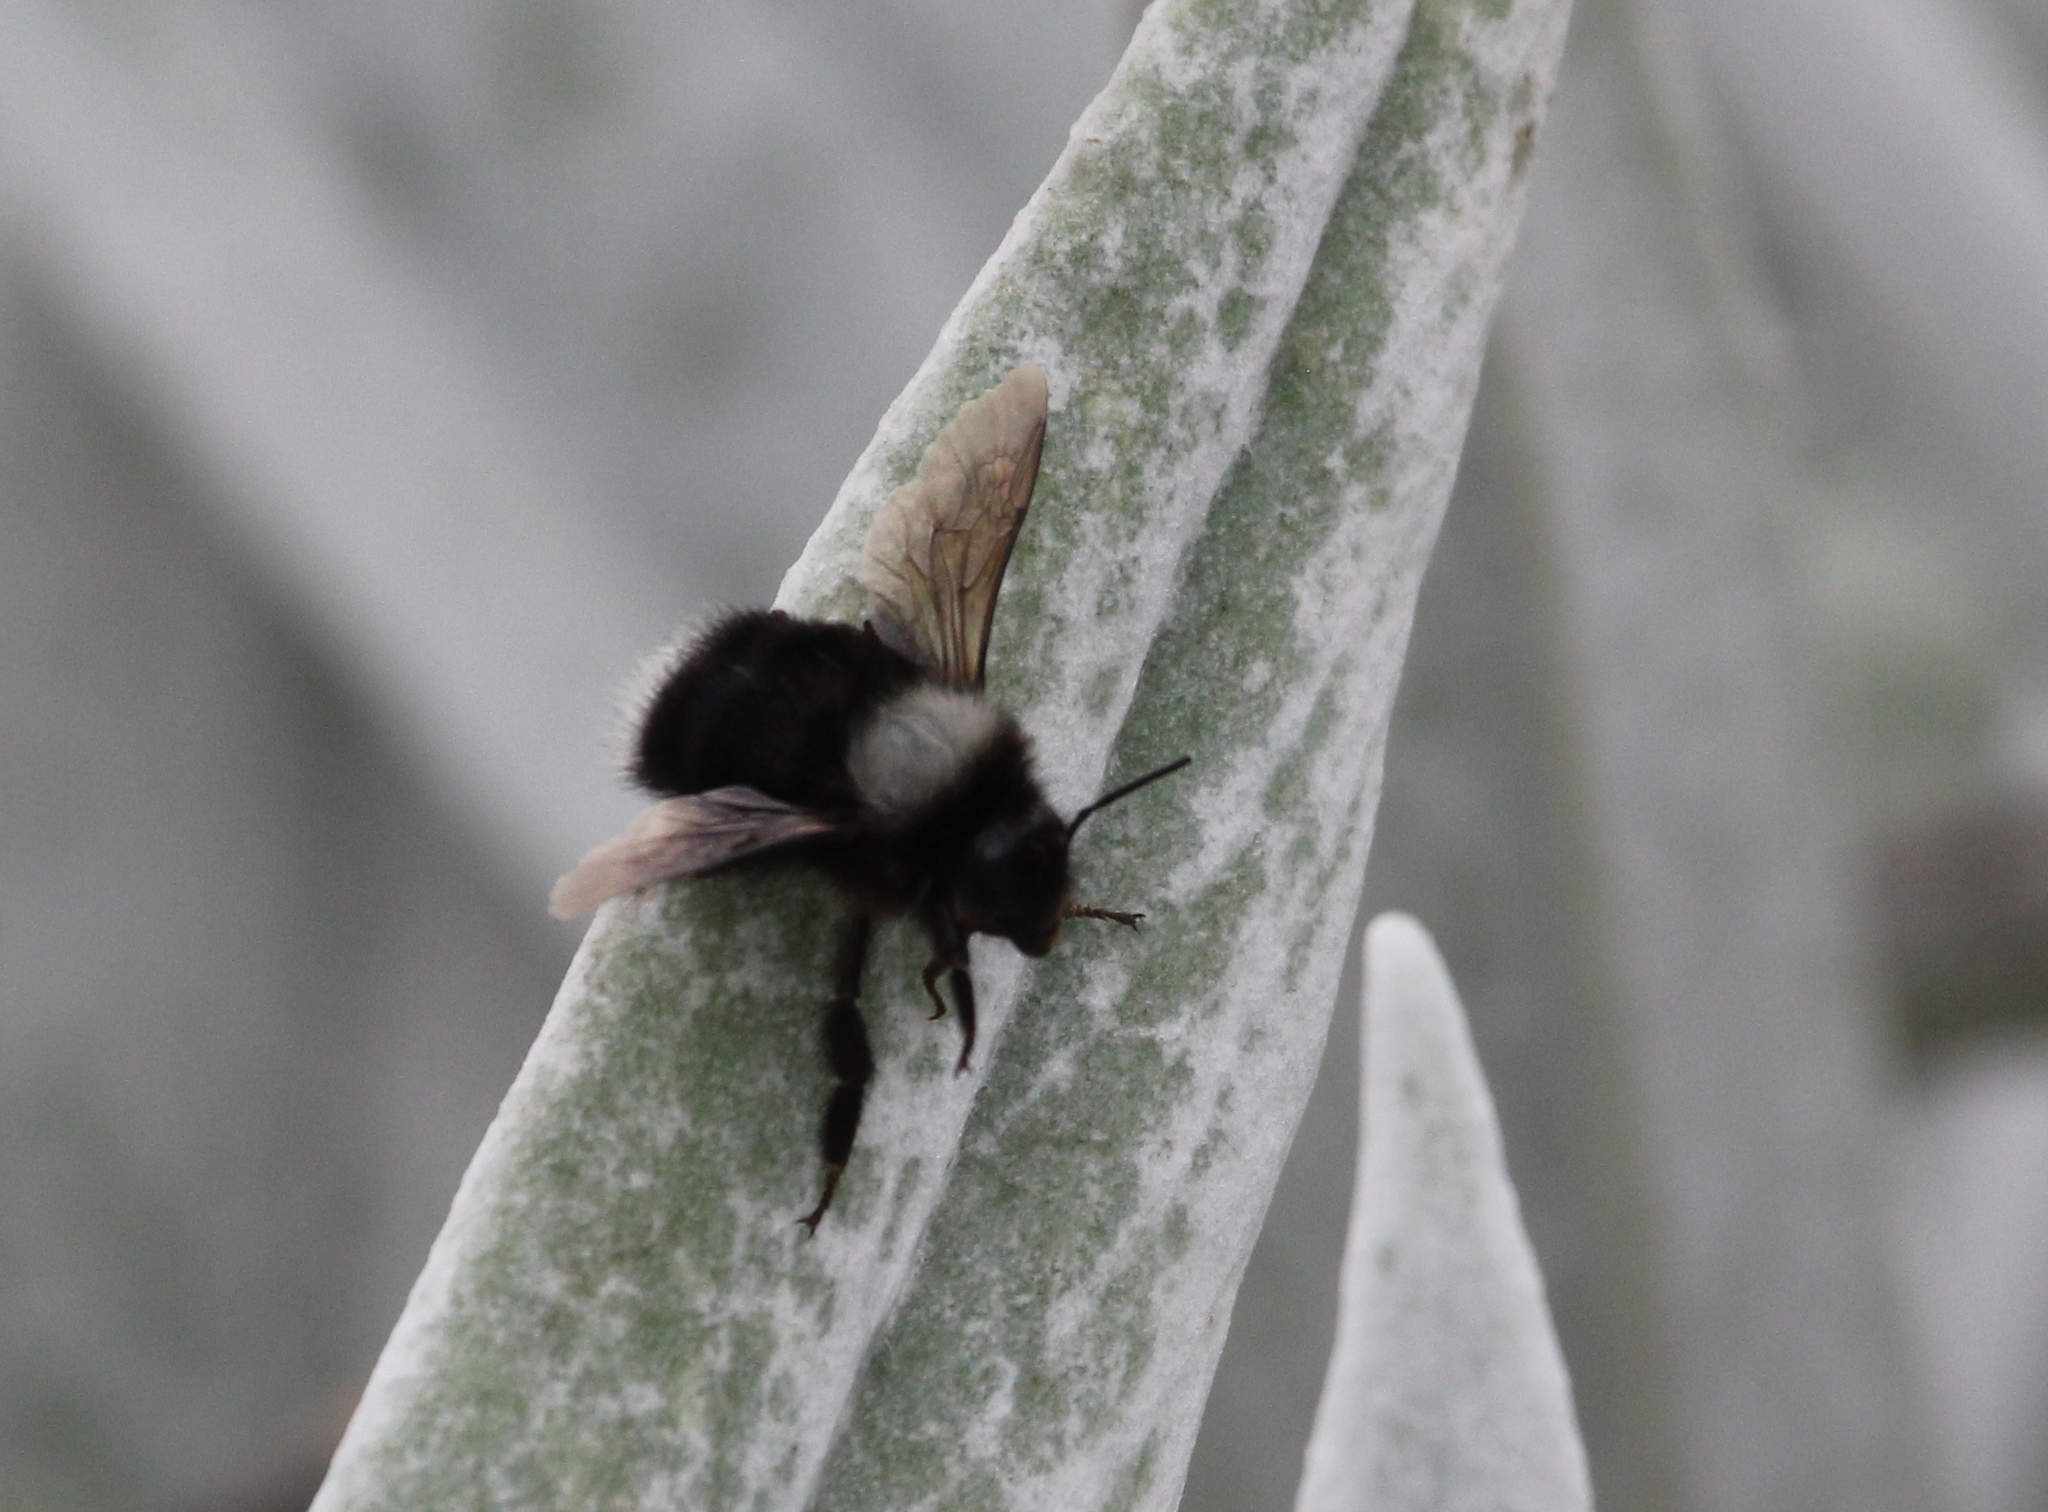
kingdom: Animalia
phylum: Arthropoda
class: Insecta
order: Hymenoptera
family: Apidae
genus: Bombus
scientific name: Bombus funebris
